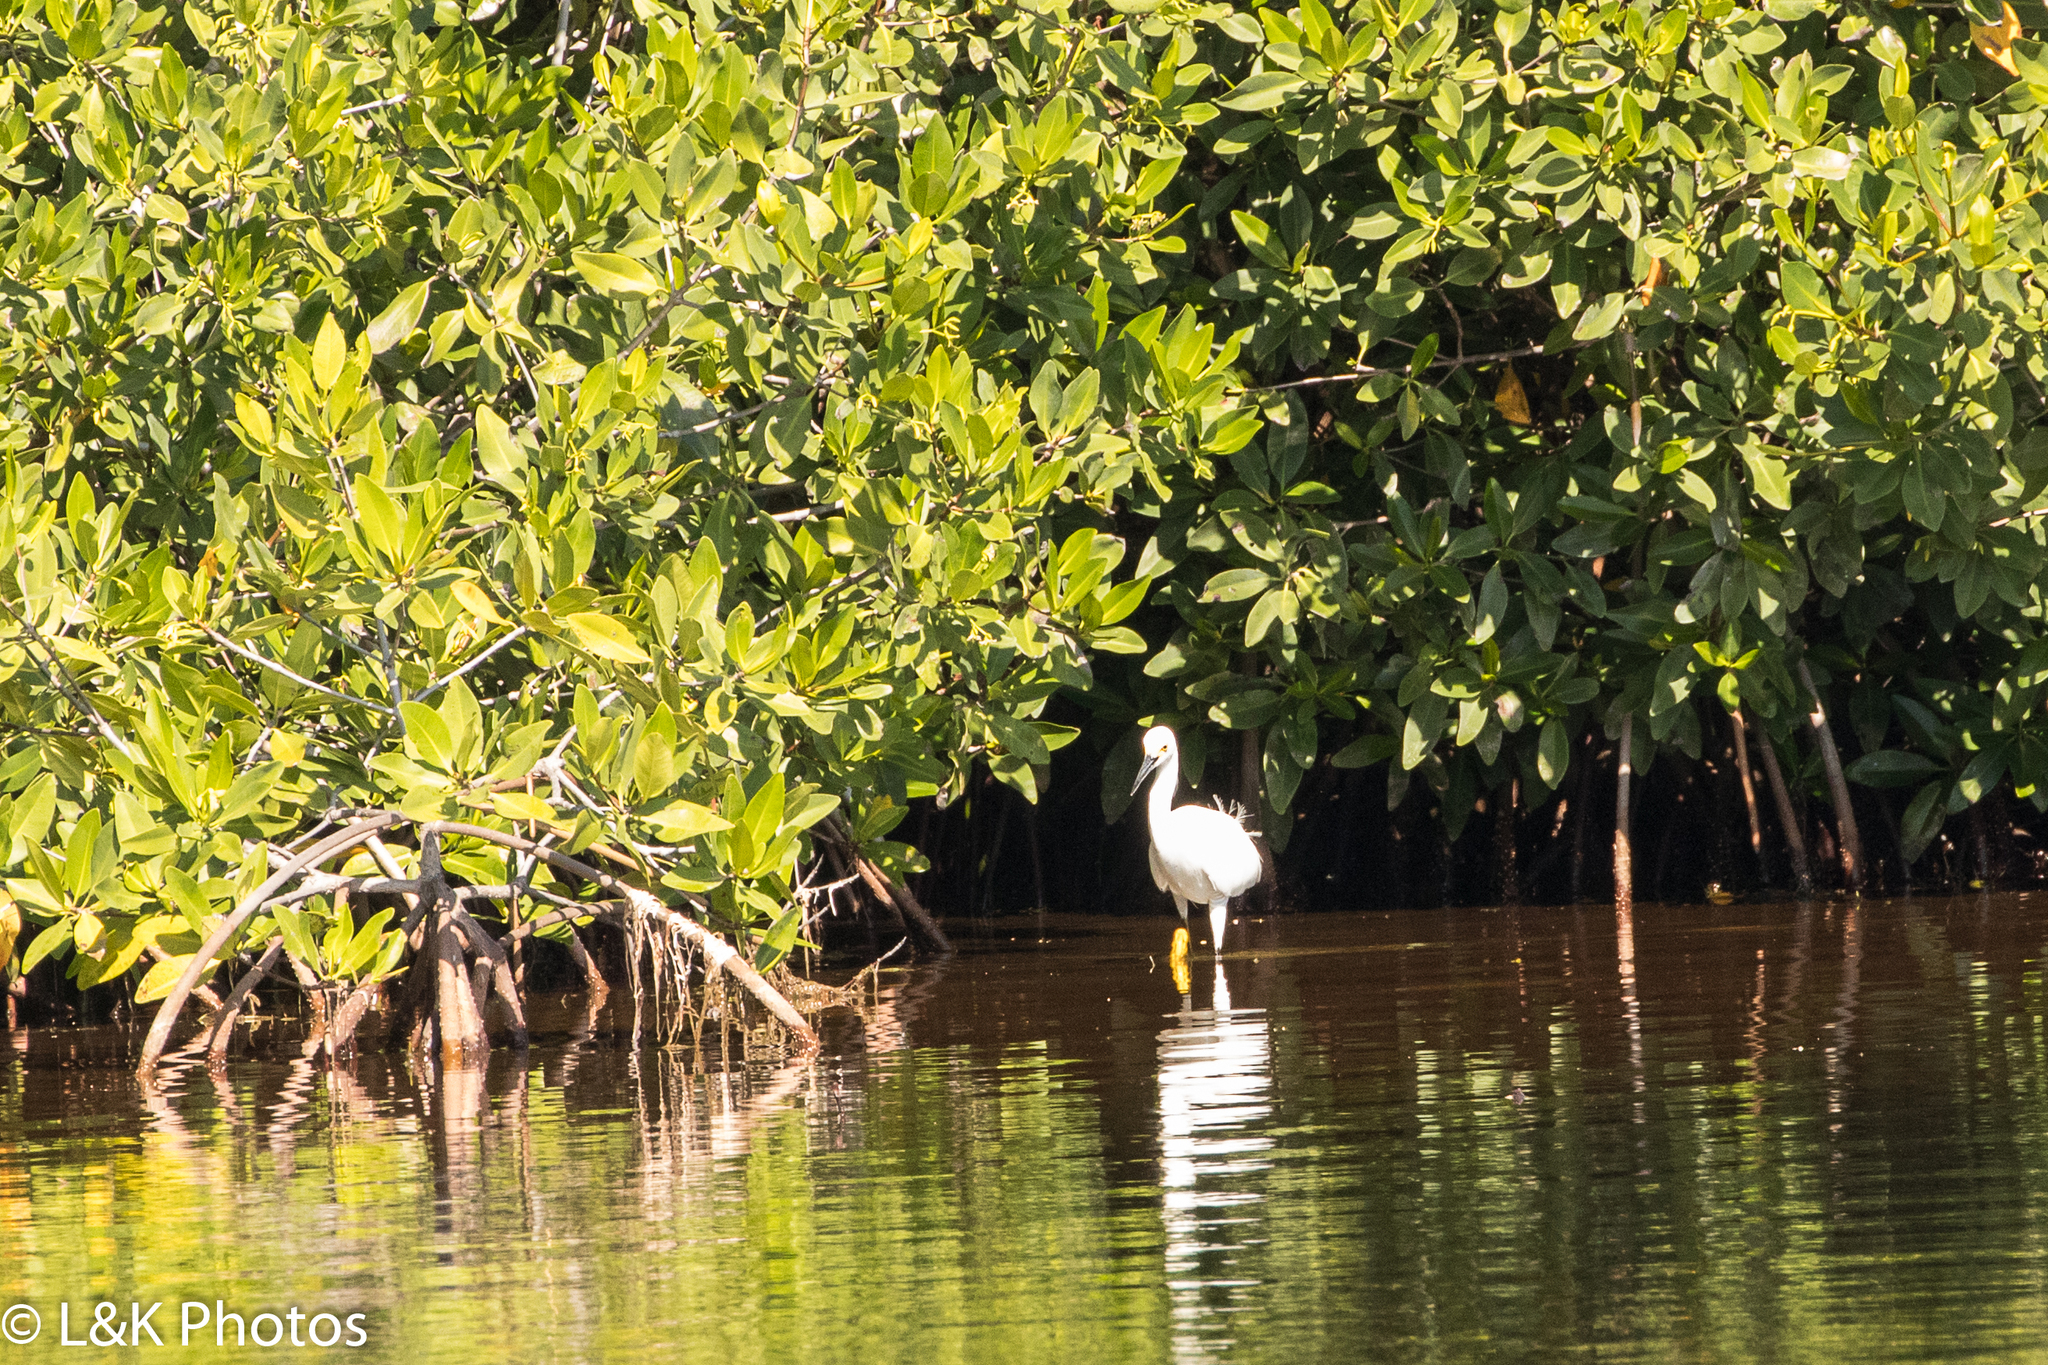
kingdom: Animalia
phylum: Chordata
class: Aves
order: Pelecaniformes
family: Ardeidae
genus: Egretta
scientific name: Egretta thula
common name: Snowy egret
